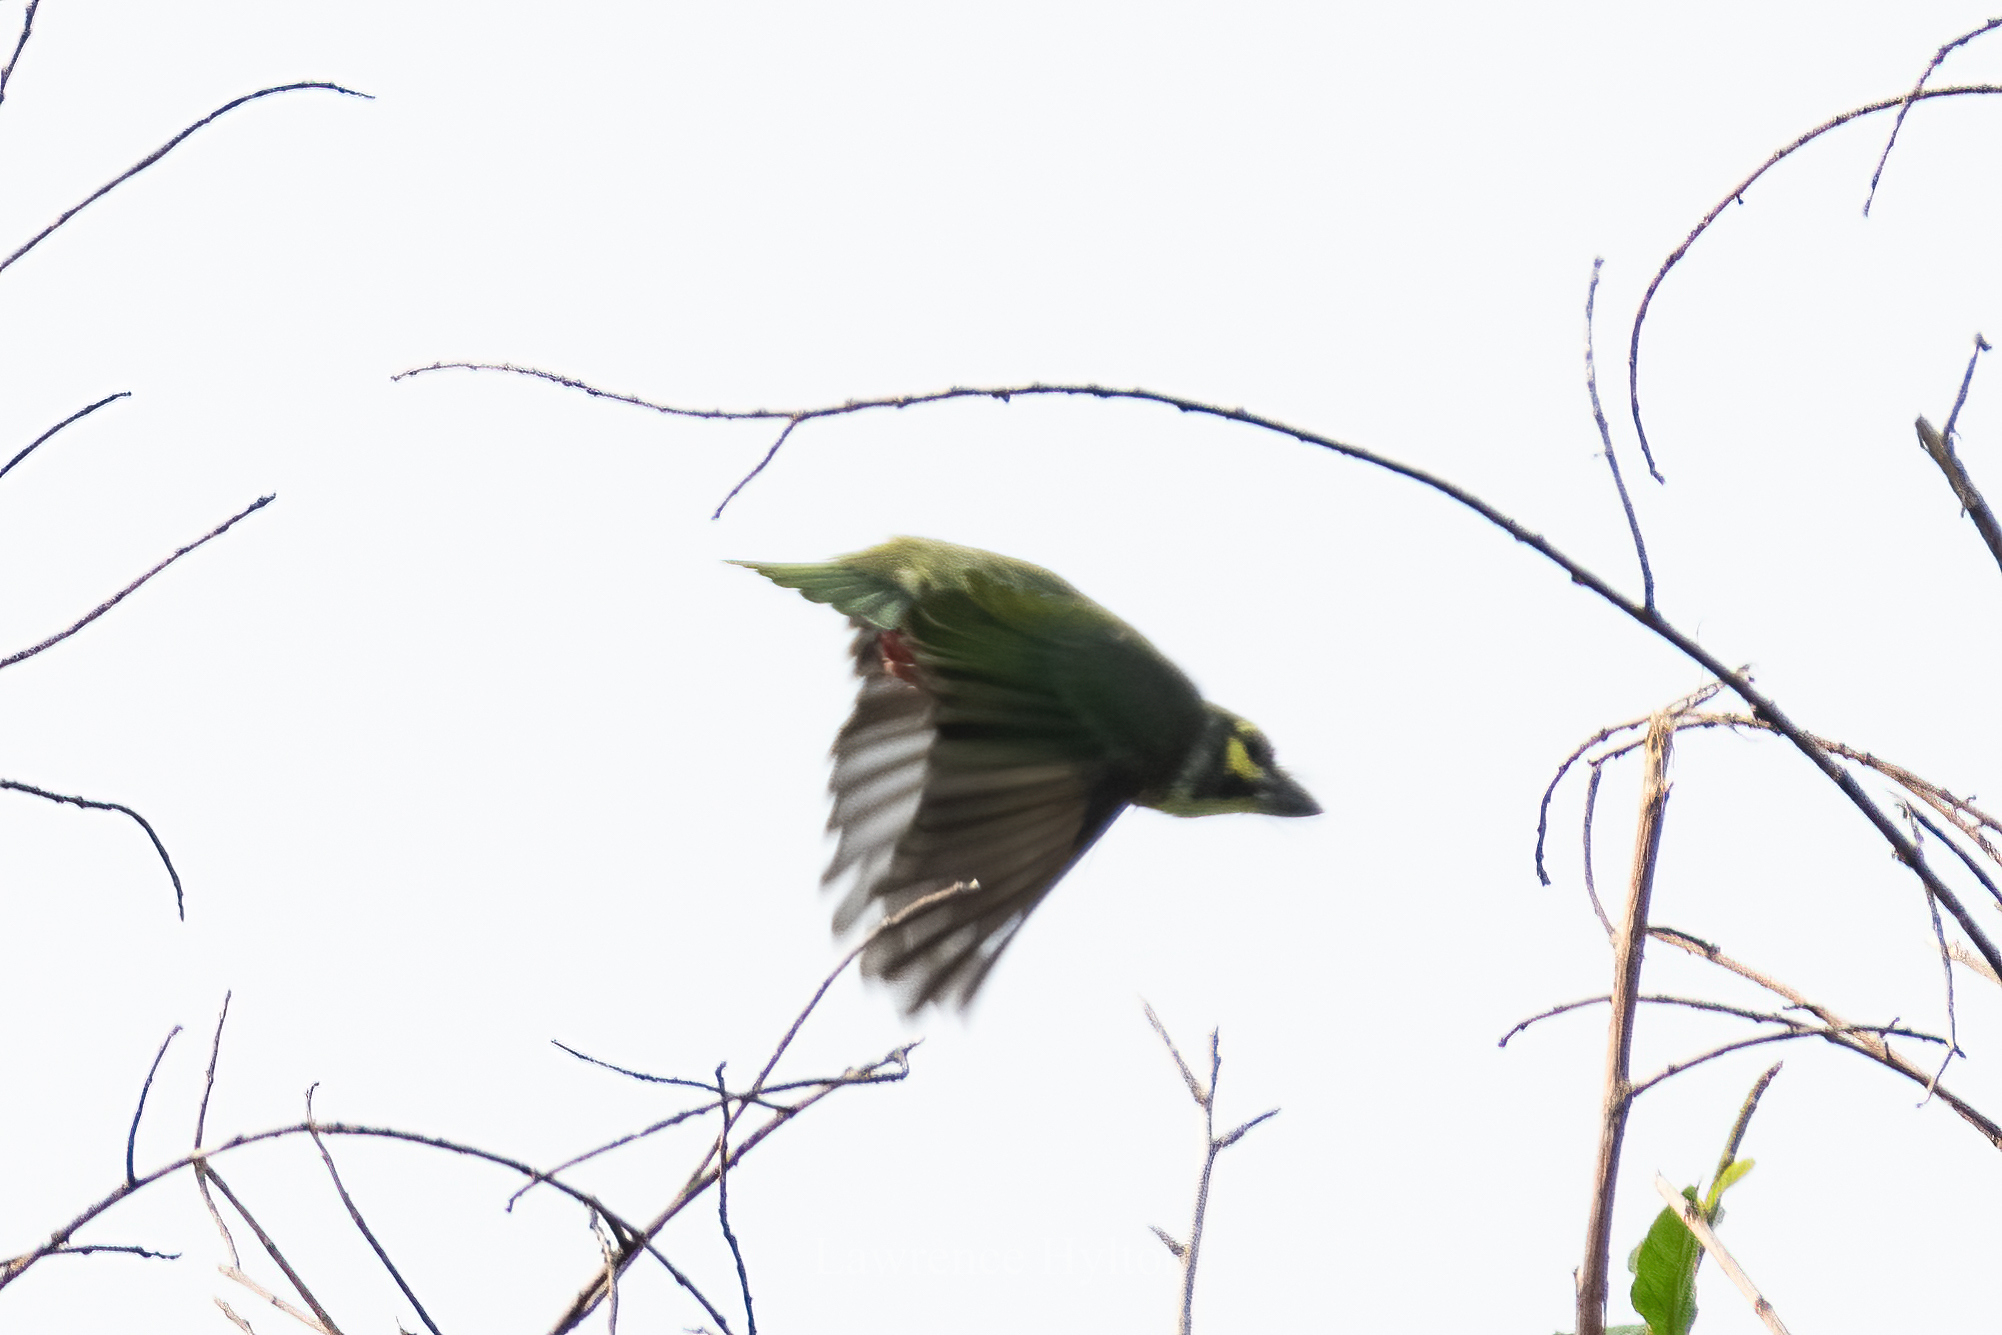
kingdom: Animalia
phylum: Chordata
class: Aves
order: Piciformes
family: Megalaimidae
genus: Psilopogon
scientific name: Psilopogon haemacephalus
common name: Coppersmith barbet
